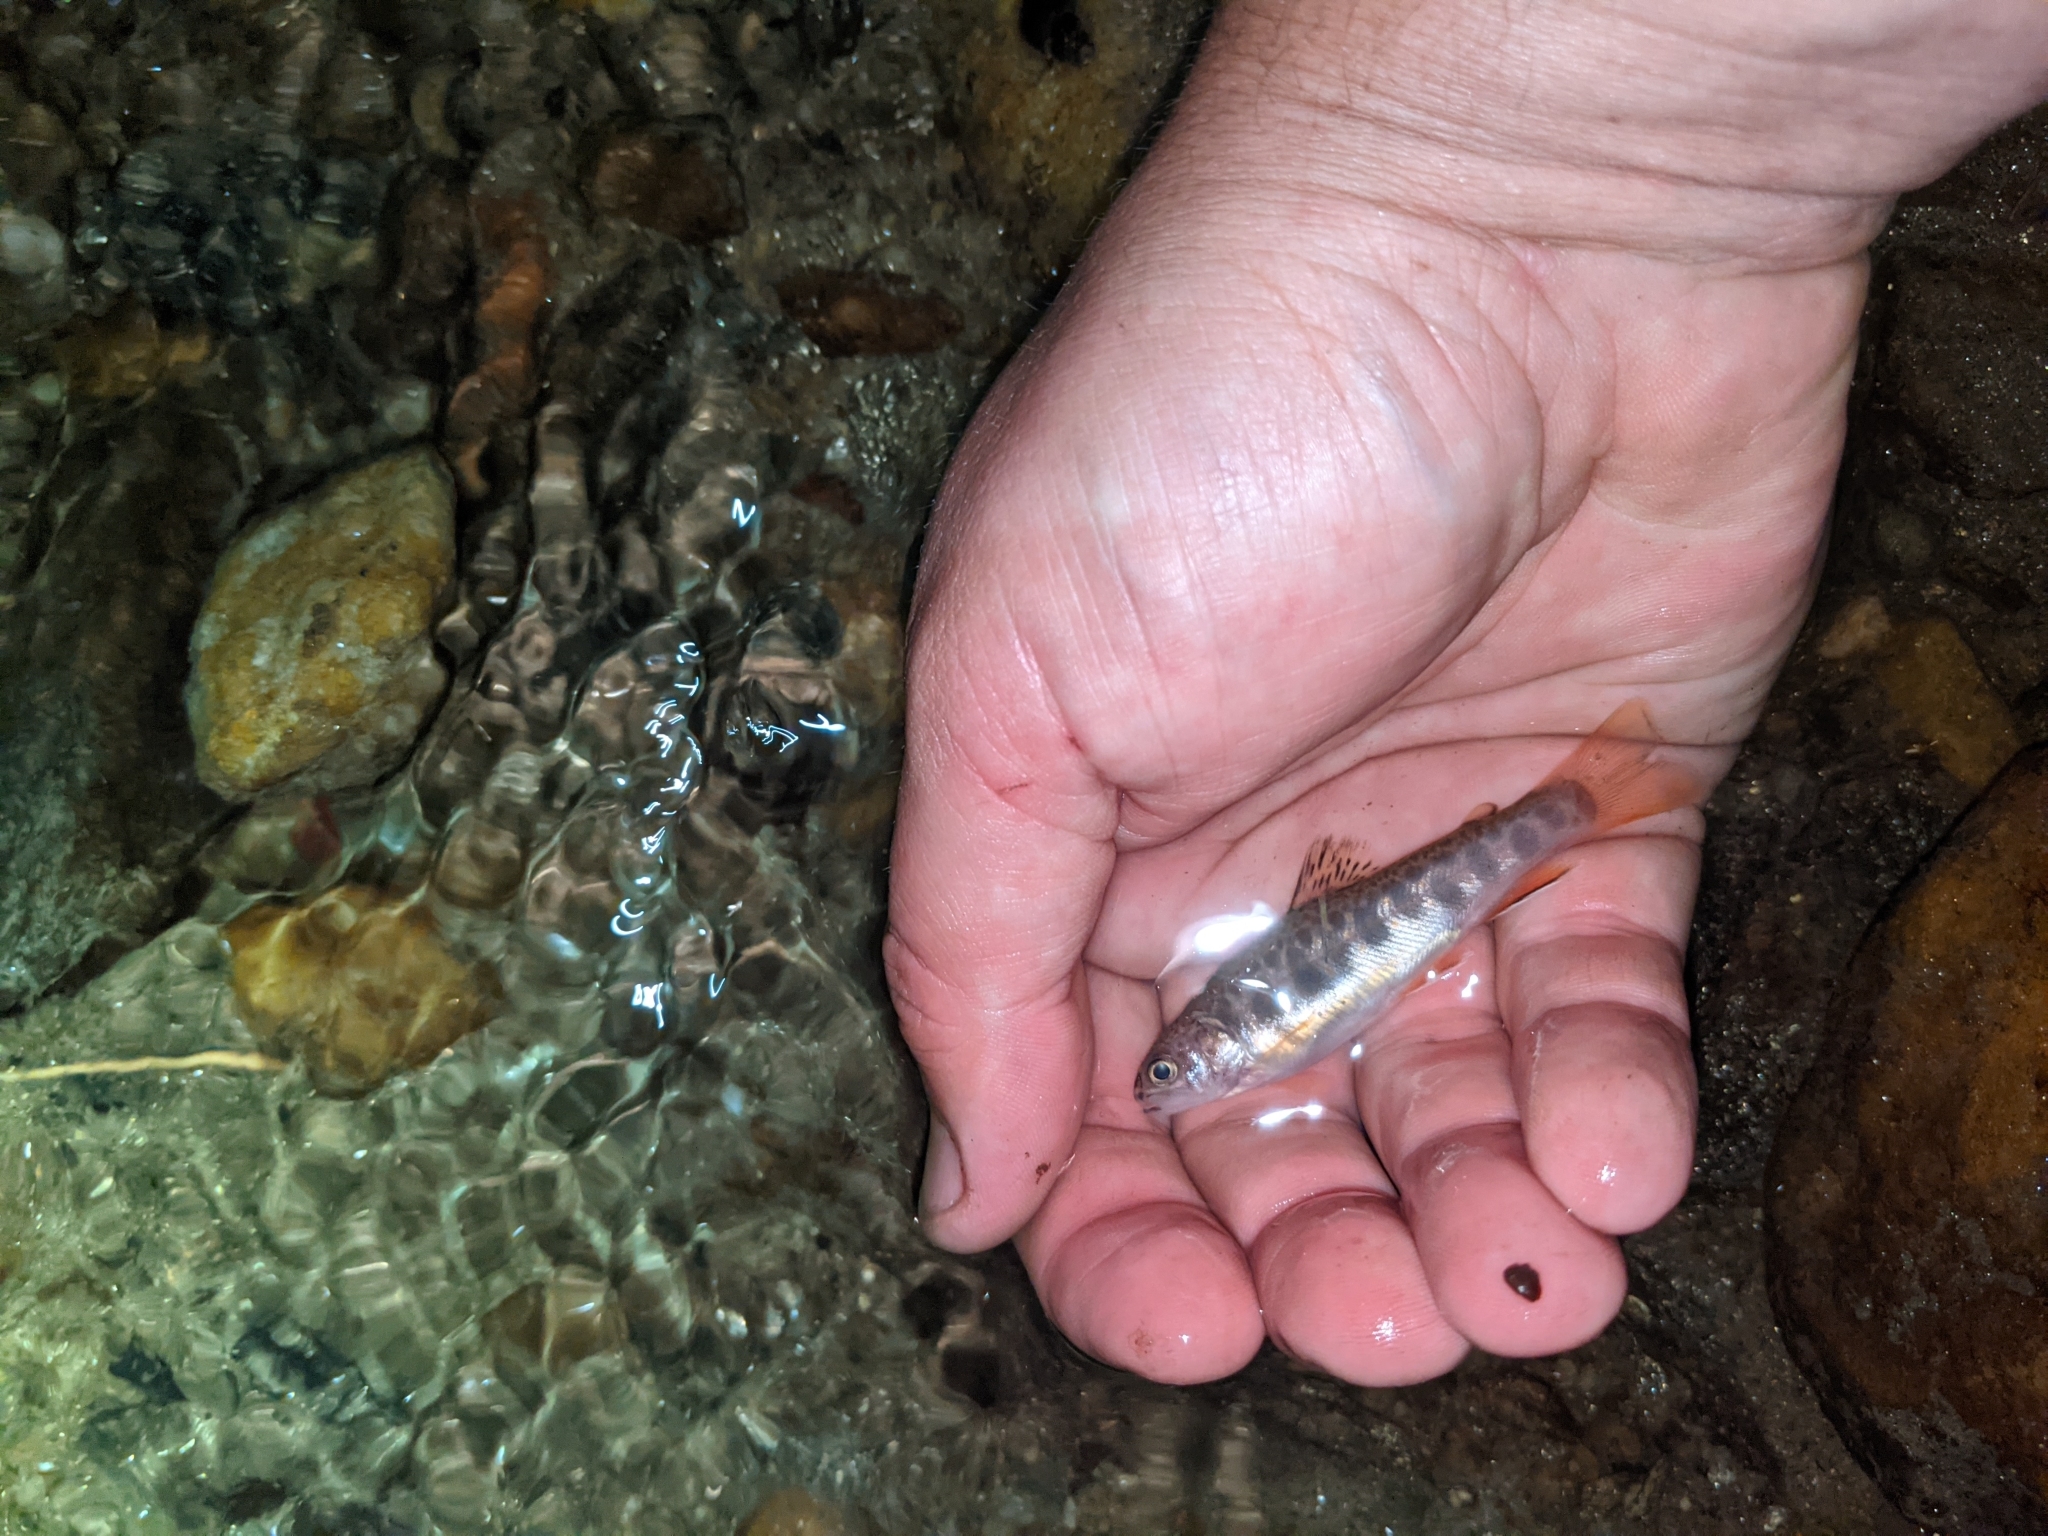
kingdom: Animalia
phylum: Chordata
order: Salmoniformes
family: Salmonidae
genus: Salvelinus
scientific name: Salvelinus fontinalis
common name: Brook trout
